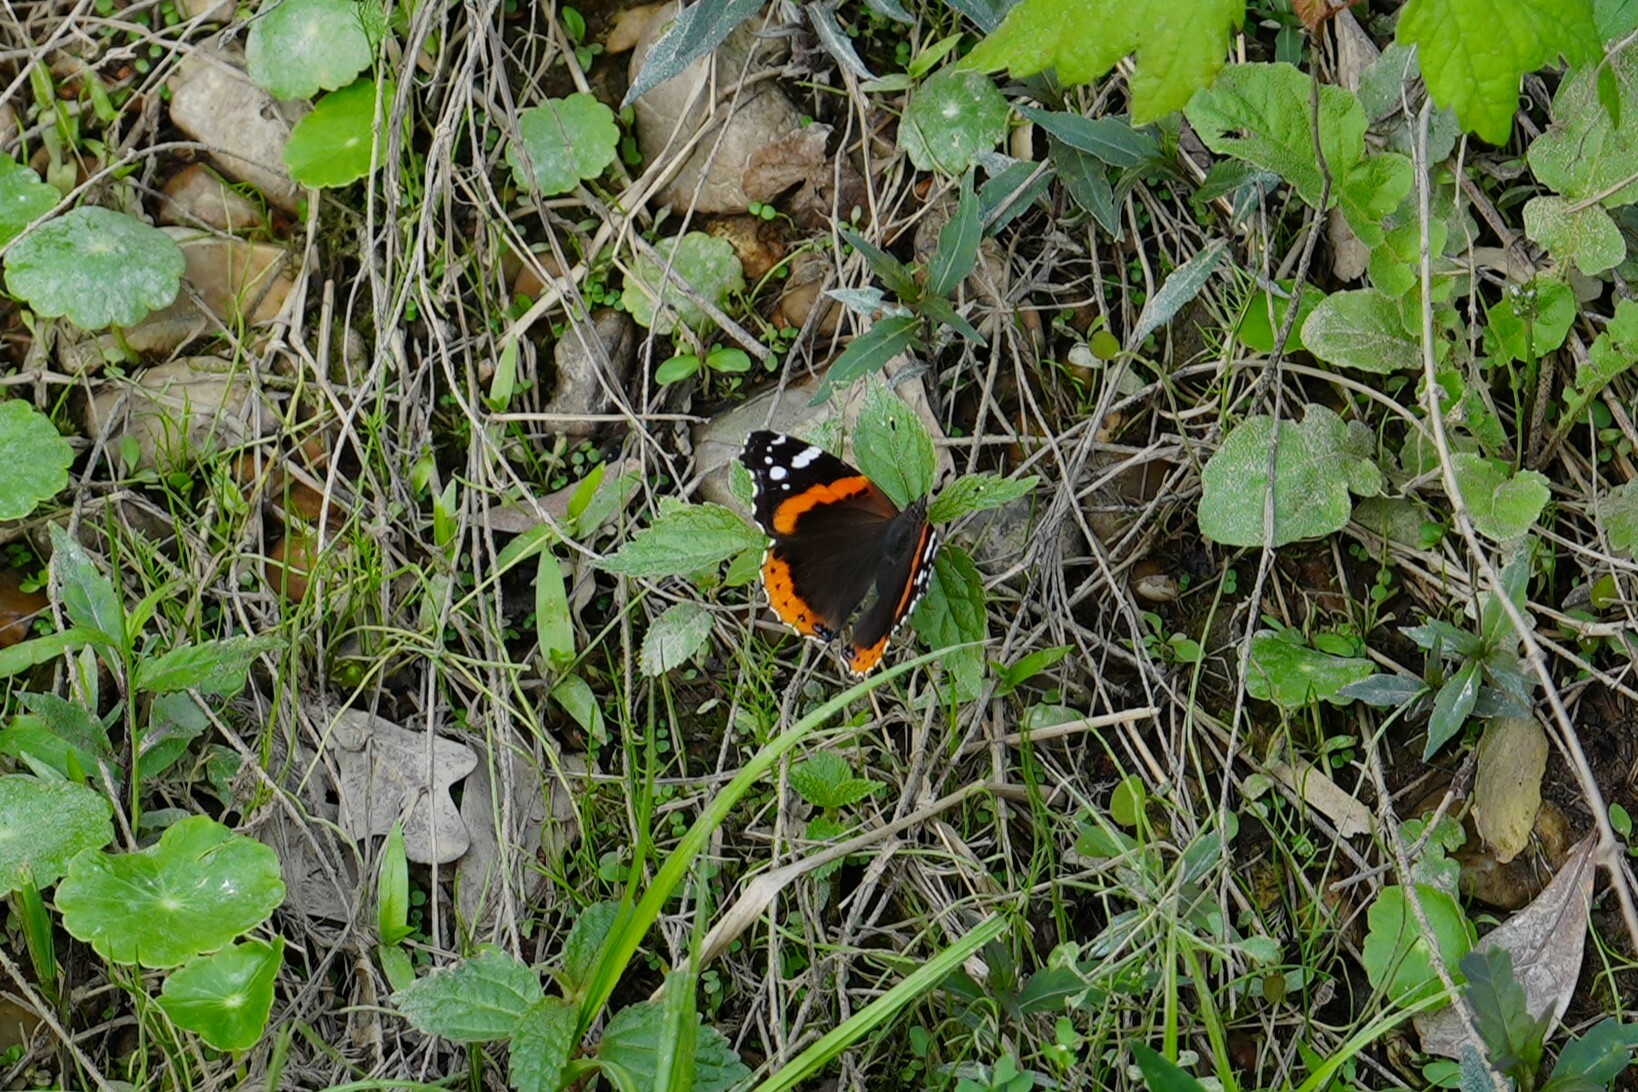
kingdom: Animalia
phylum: Arthropoda
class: Insecta
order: Lepidoptera
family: Nymphalidae
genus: Vanessa
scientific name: Vanessa atalanta
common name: Red admiral
